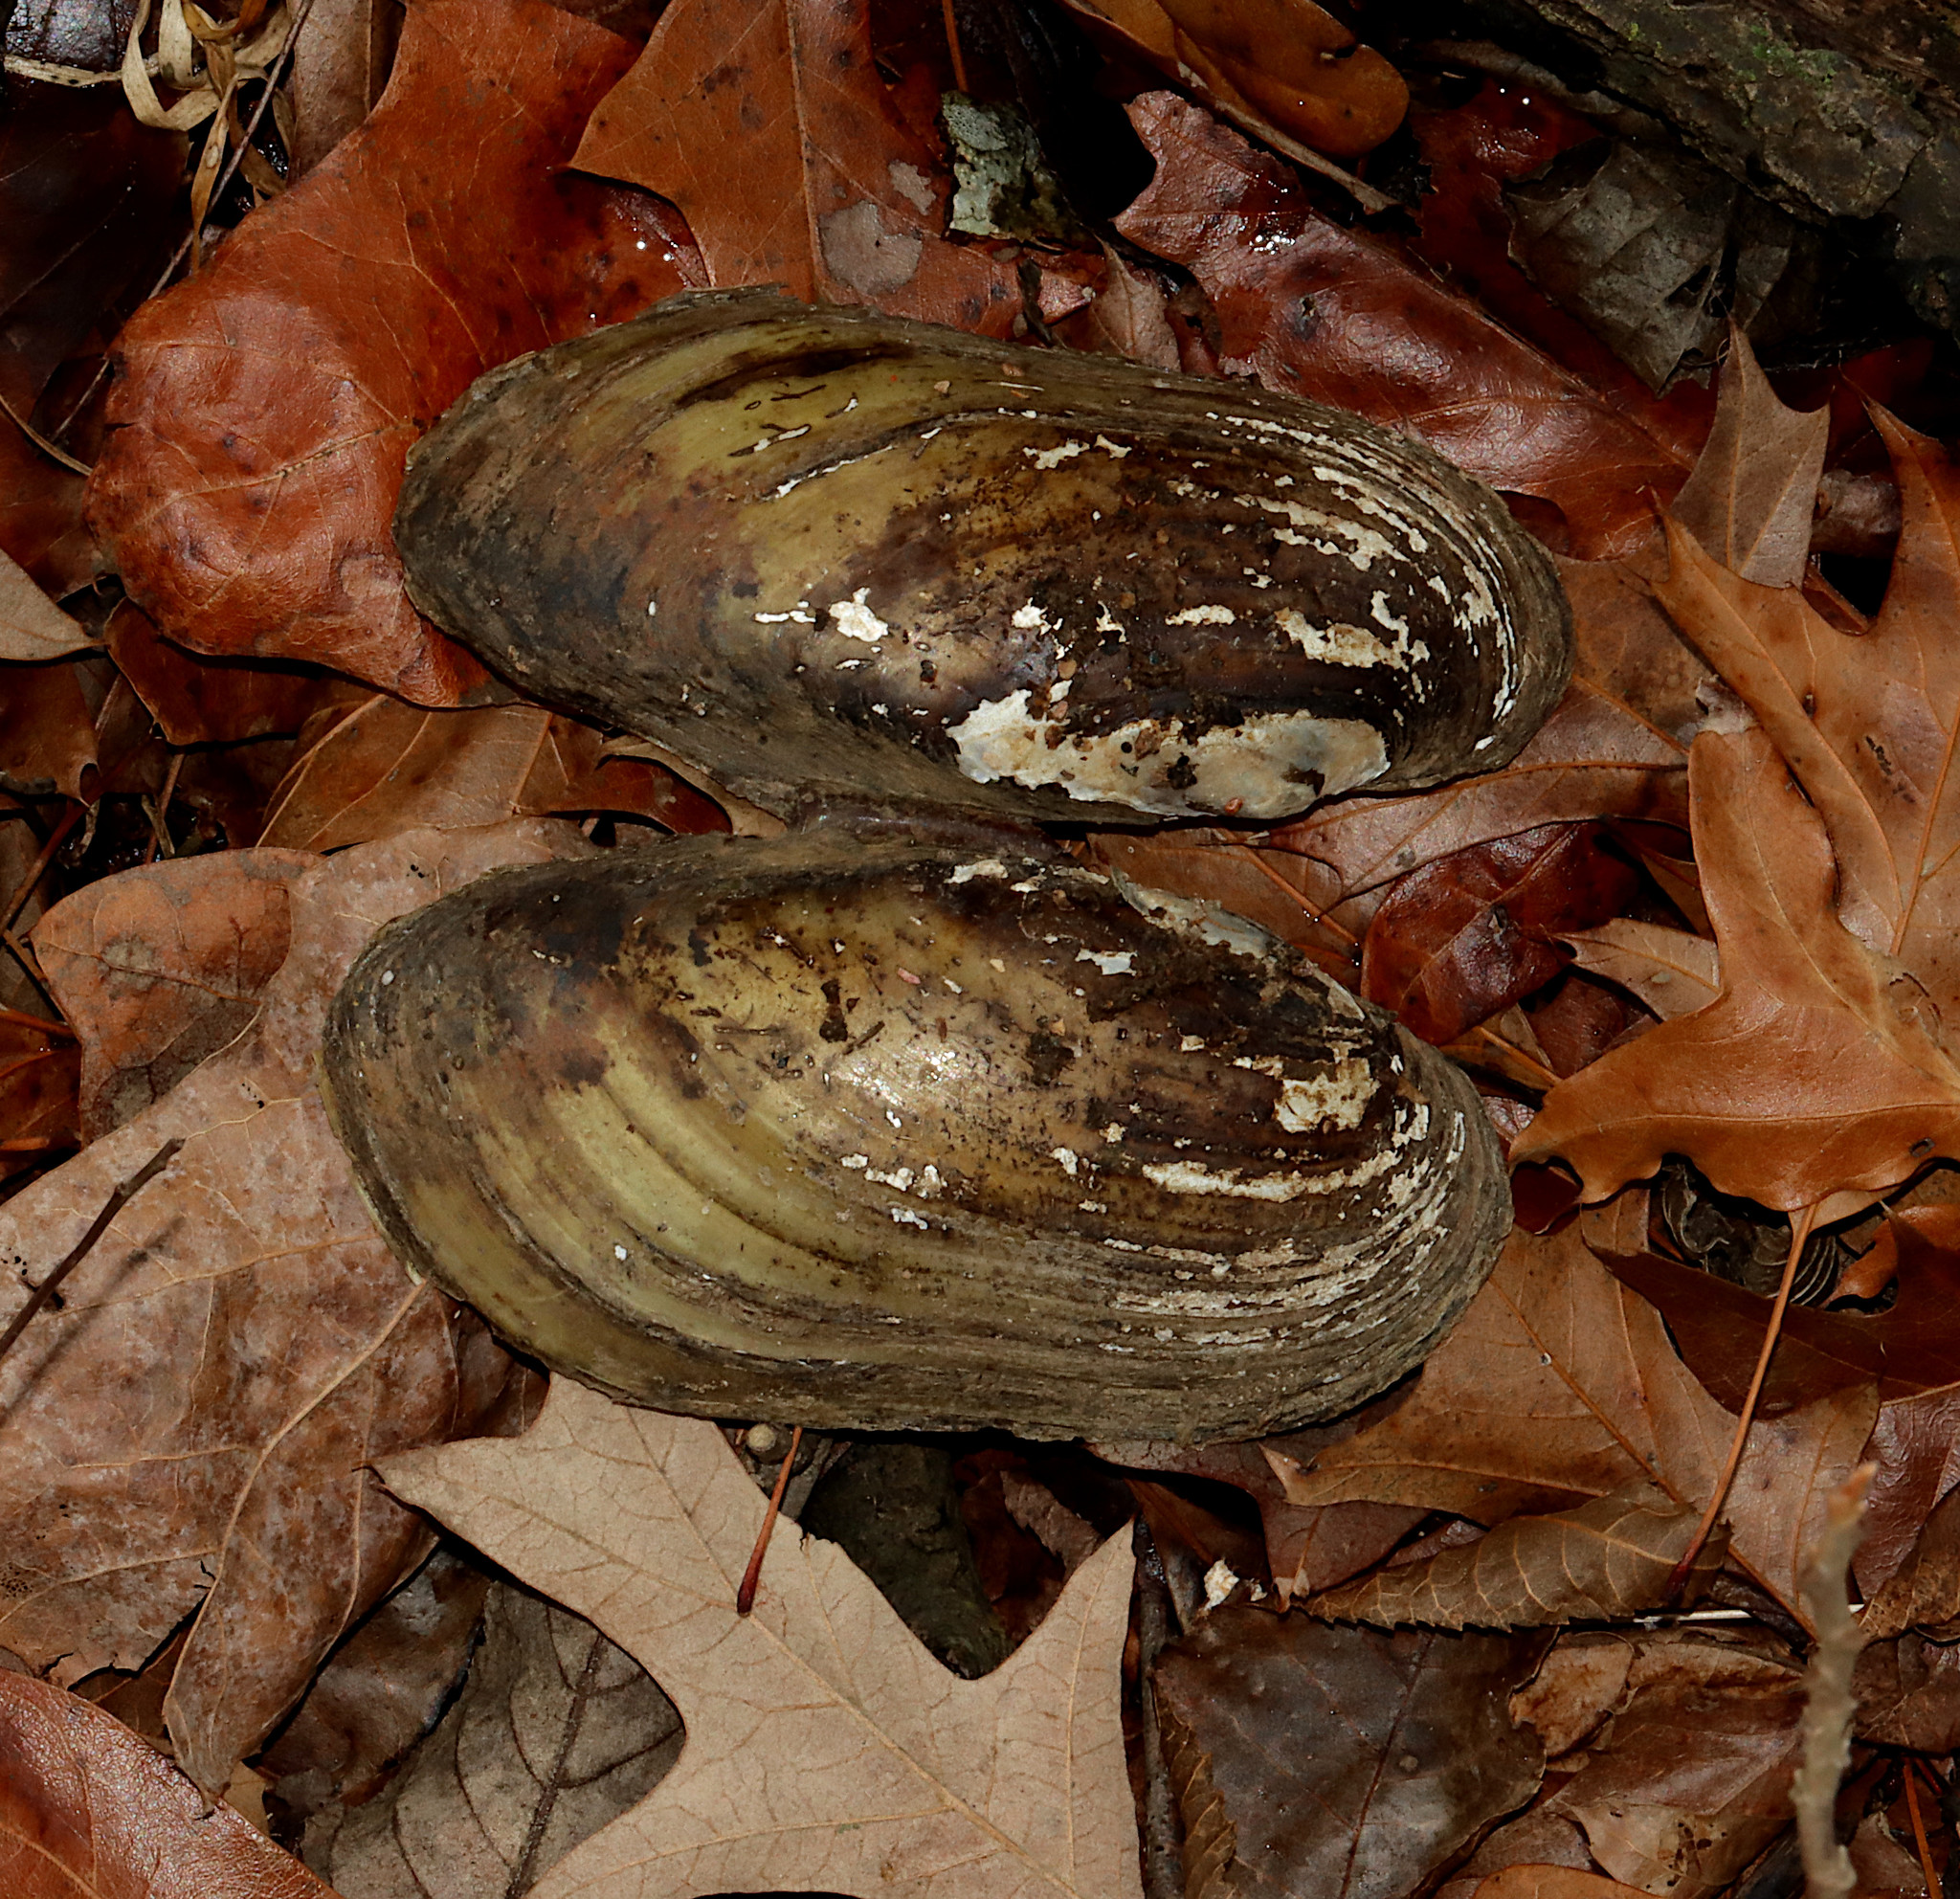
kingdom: Animalia
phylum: Mollusca
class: Bivalvia
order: Unionida
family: Unionidae
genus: Lampsilis
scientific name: Lampsilis teres
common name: Yellow sandshell
